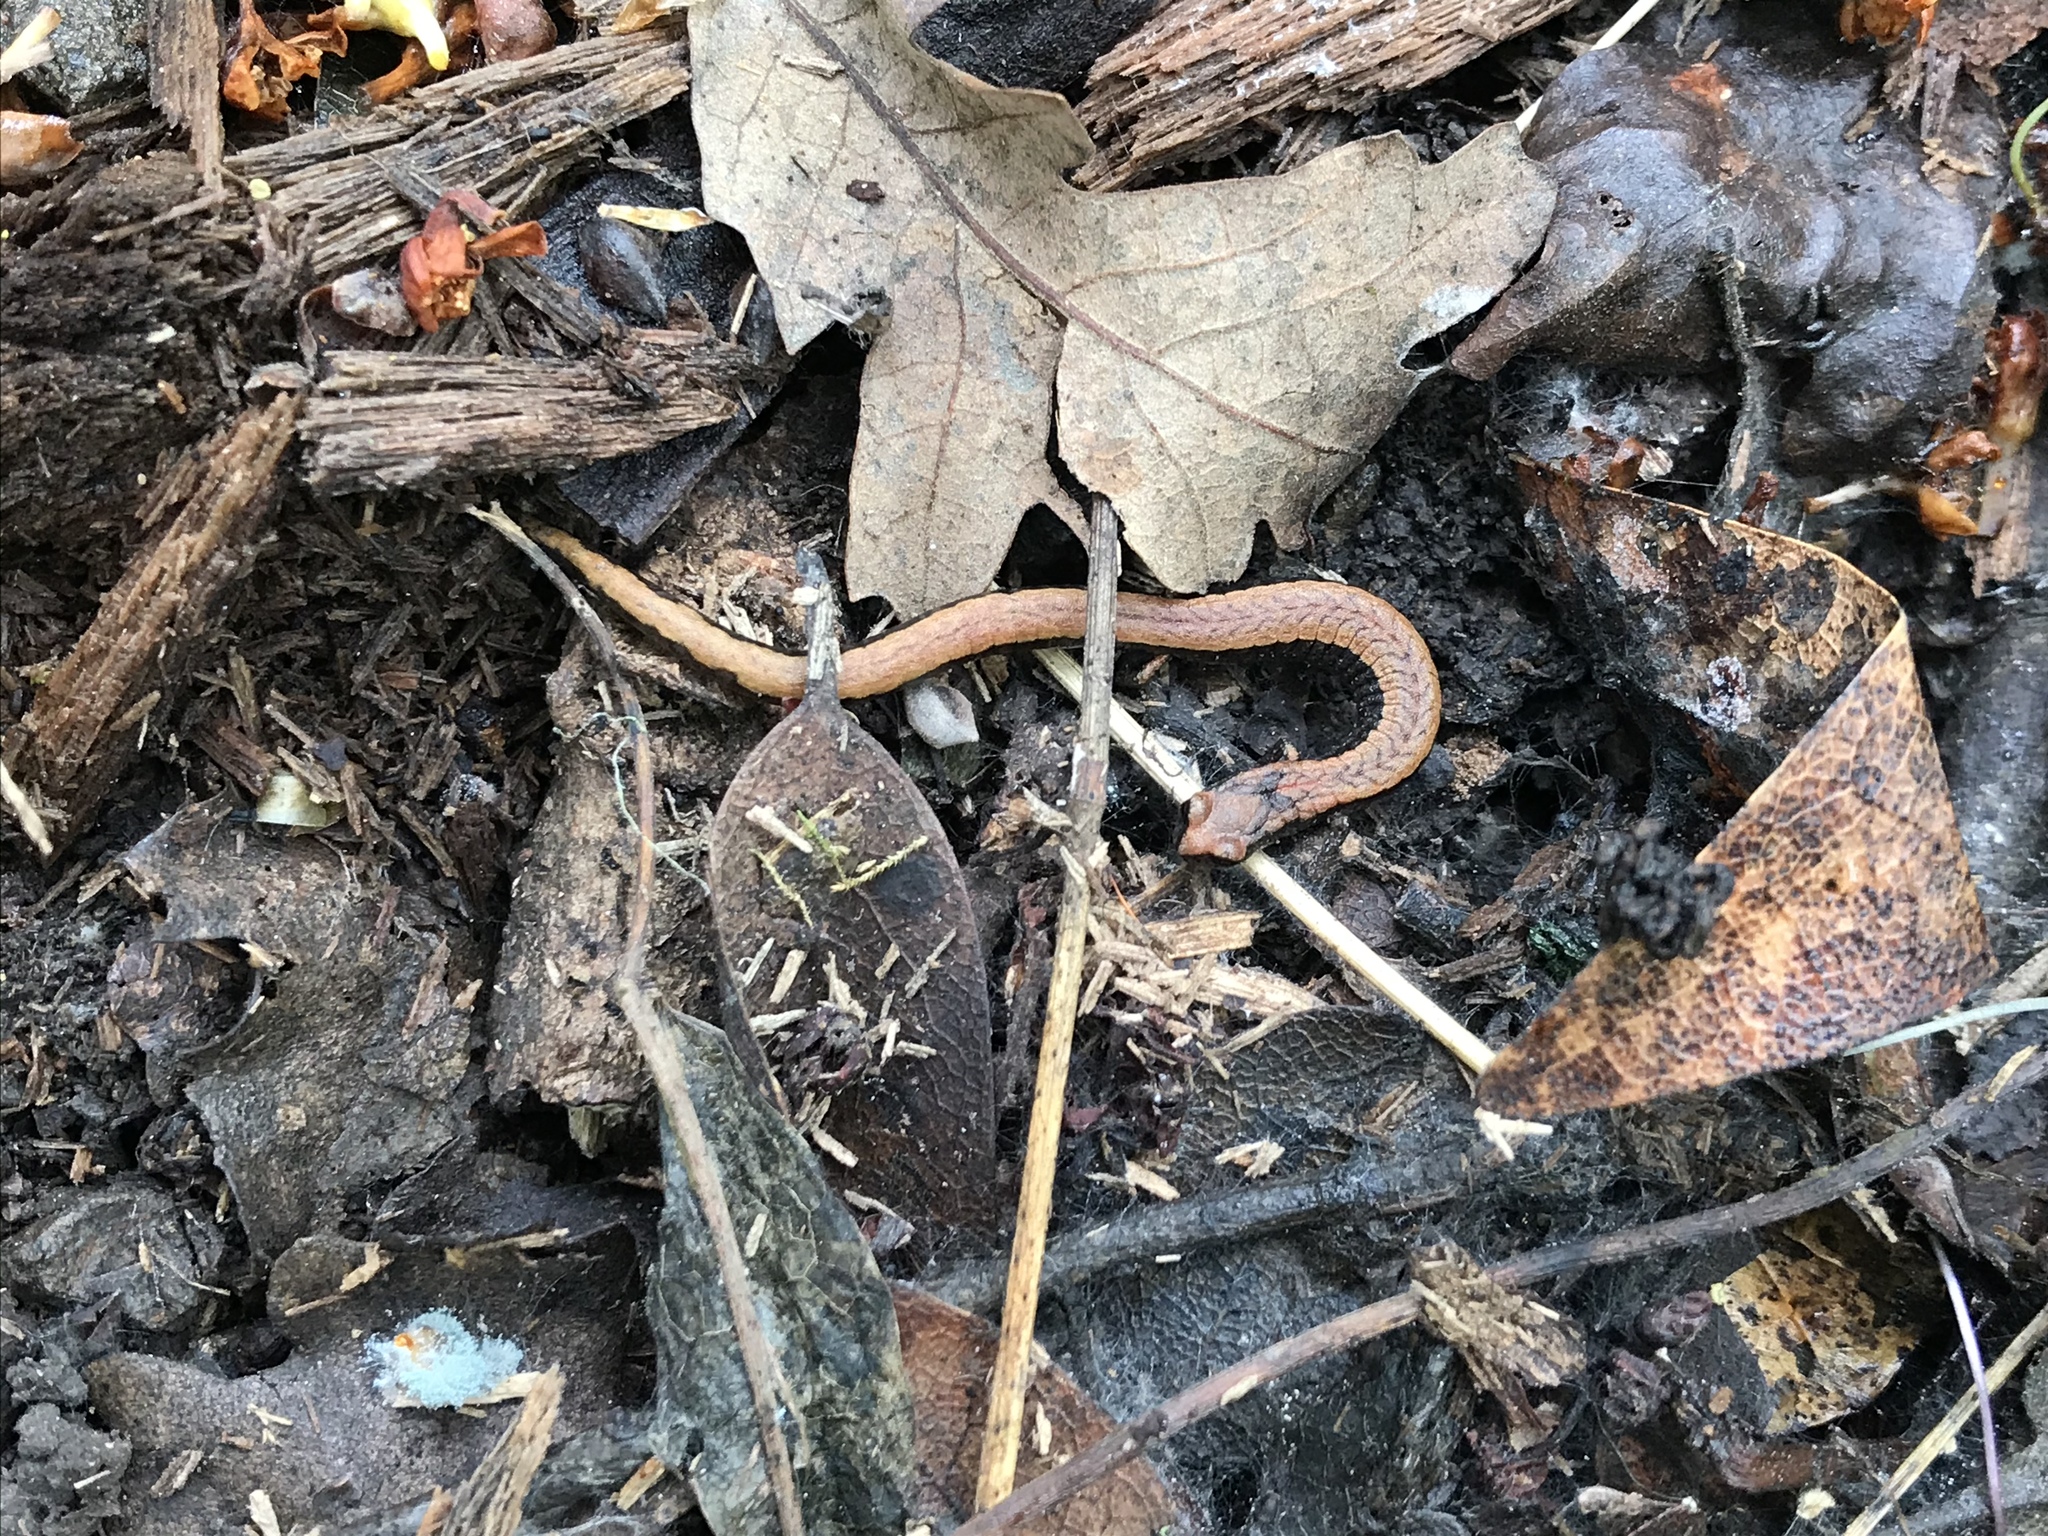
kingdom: Animalia
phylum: Chordata
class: Amphibia
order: Caudata
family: Plethodontidae
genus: Batrachoseps
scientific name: Batrachoseps attenuatus
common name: California slender salamander
